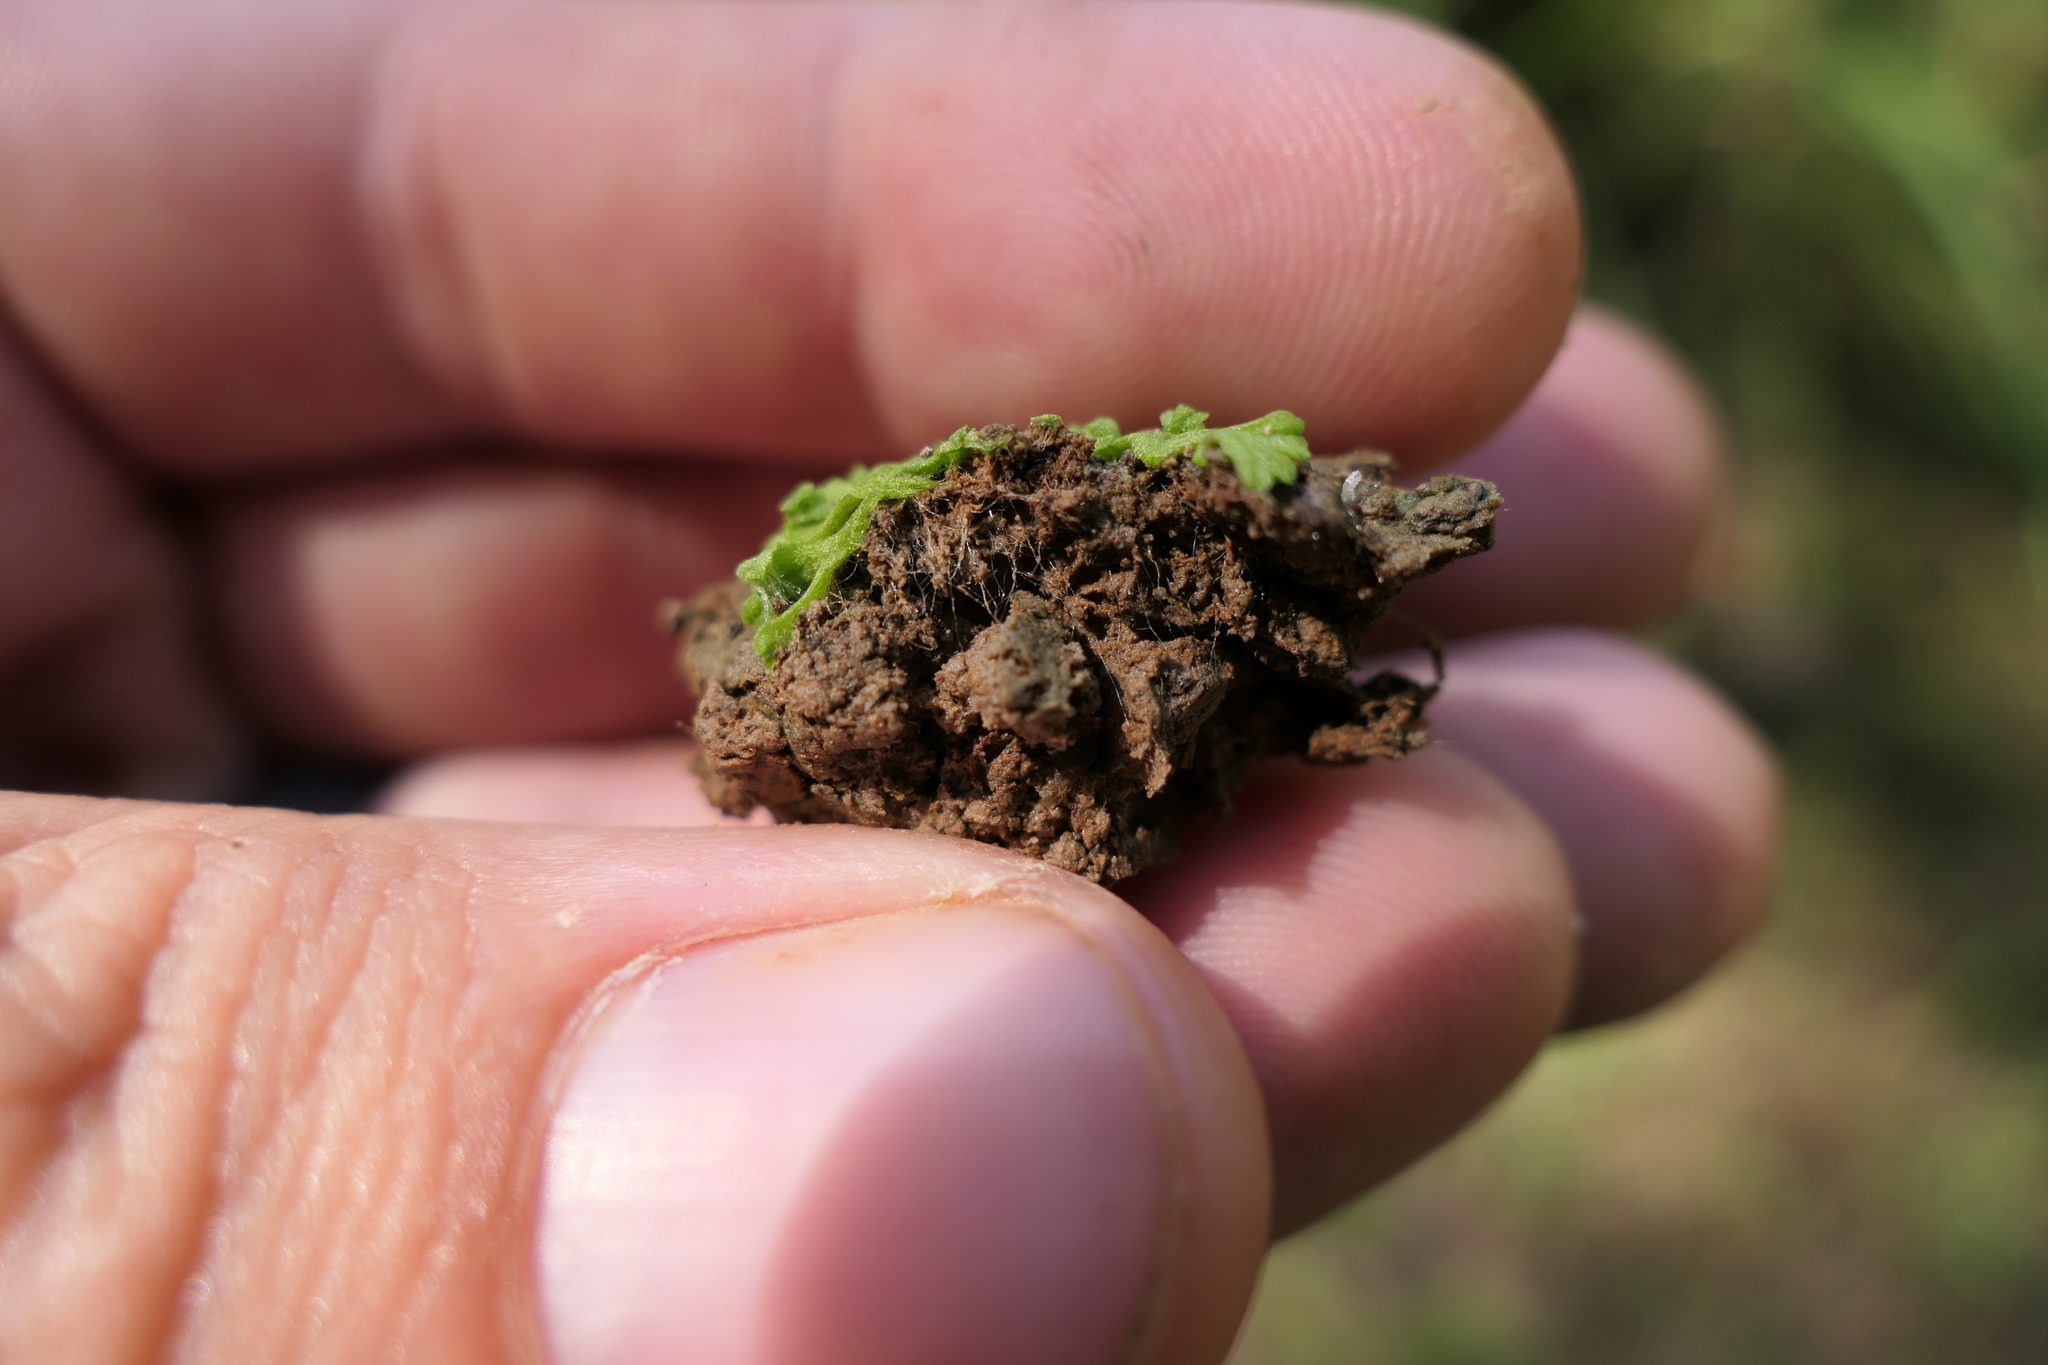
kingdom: Plantae
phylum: Marchantiophyta
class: Marchantiopsida
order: Marchantiales
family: Ricciaceae
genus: Ricciocarpos
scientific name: Ricciocarpos natans
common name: Purple-fringed liverwort
